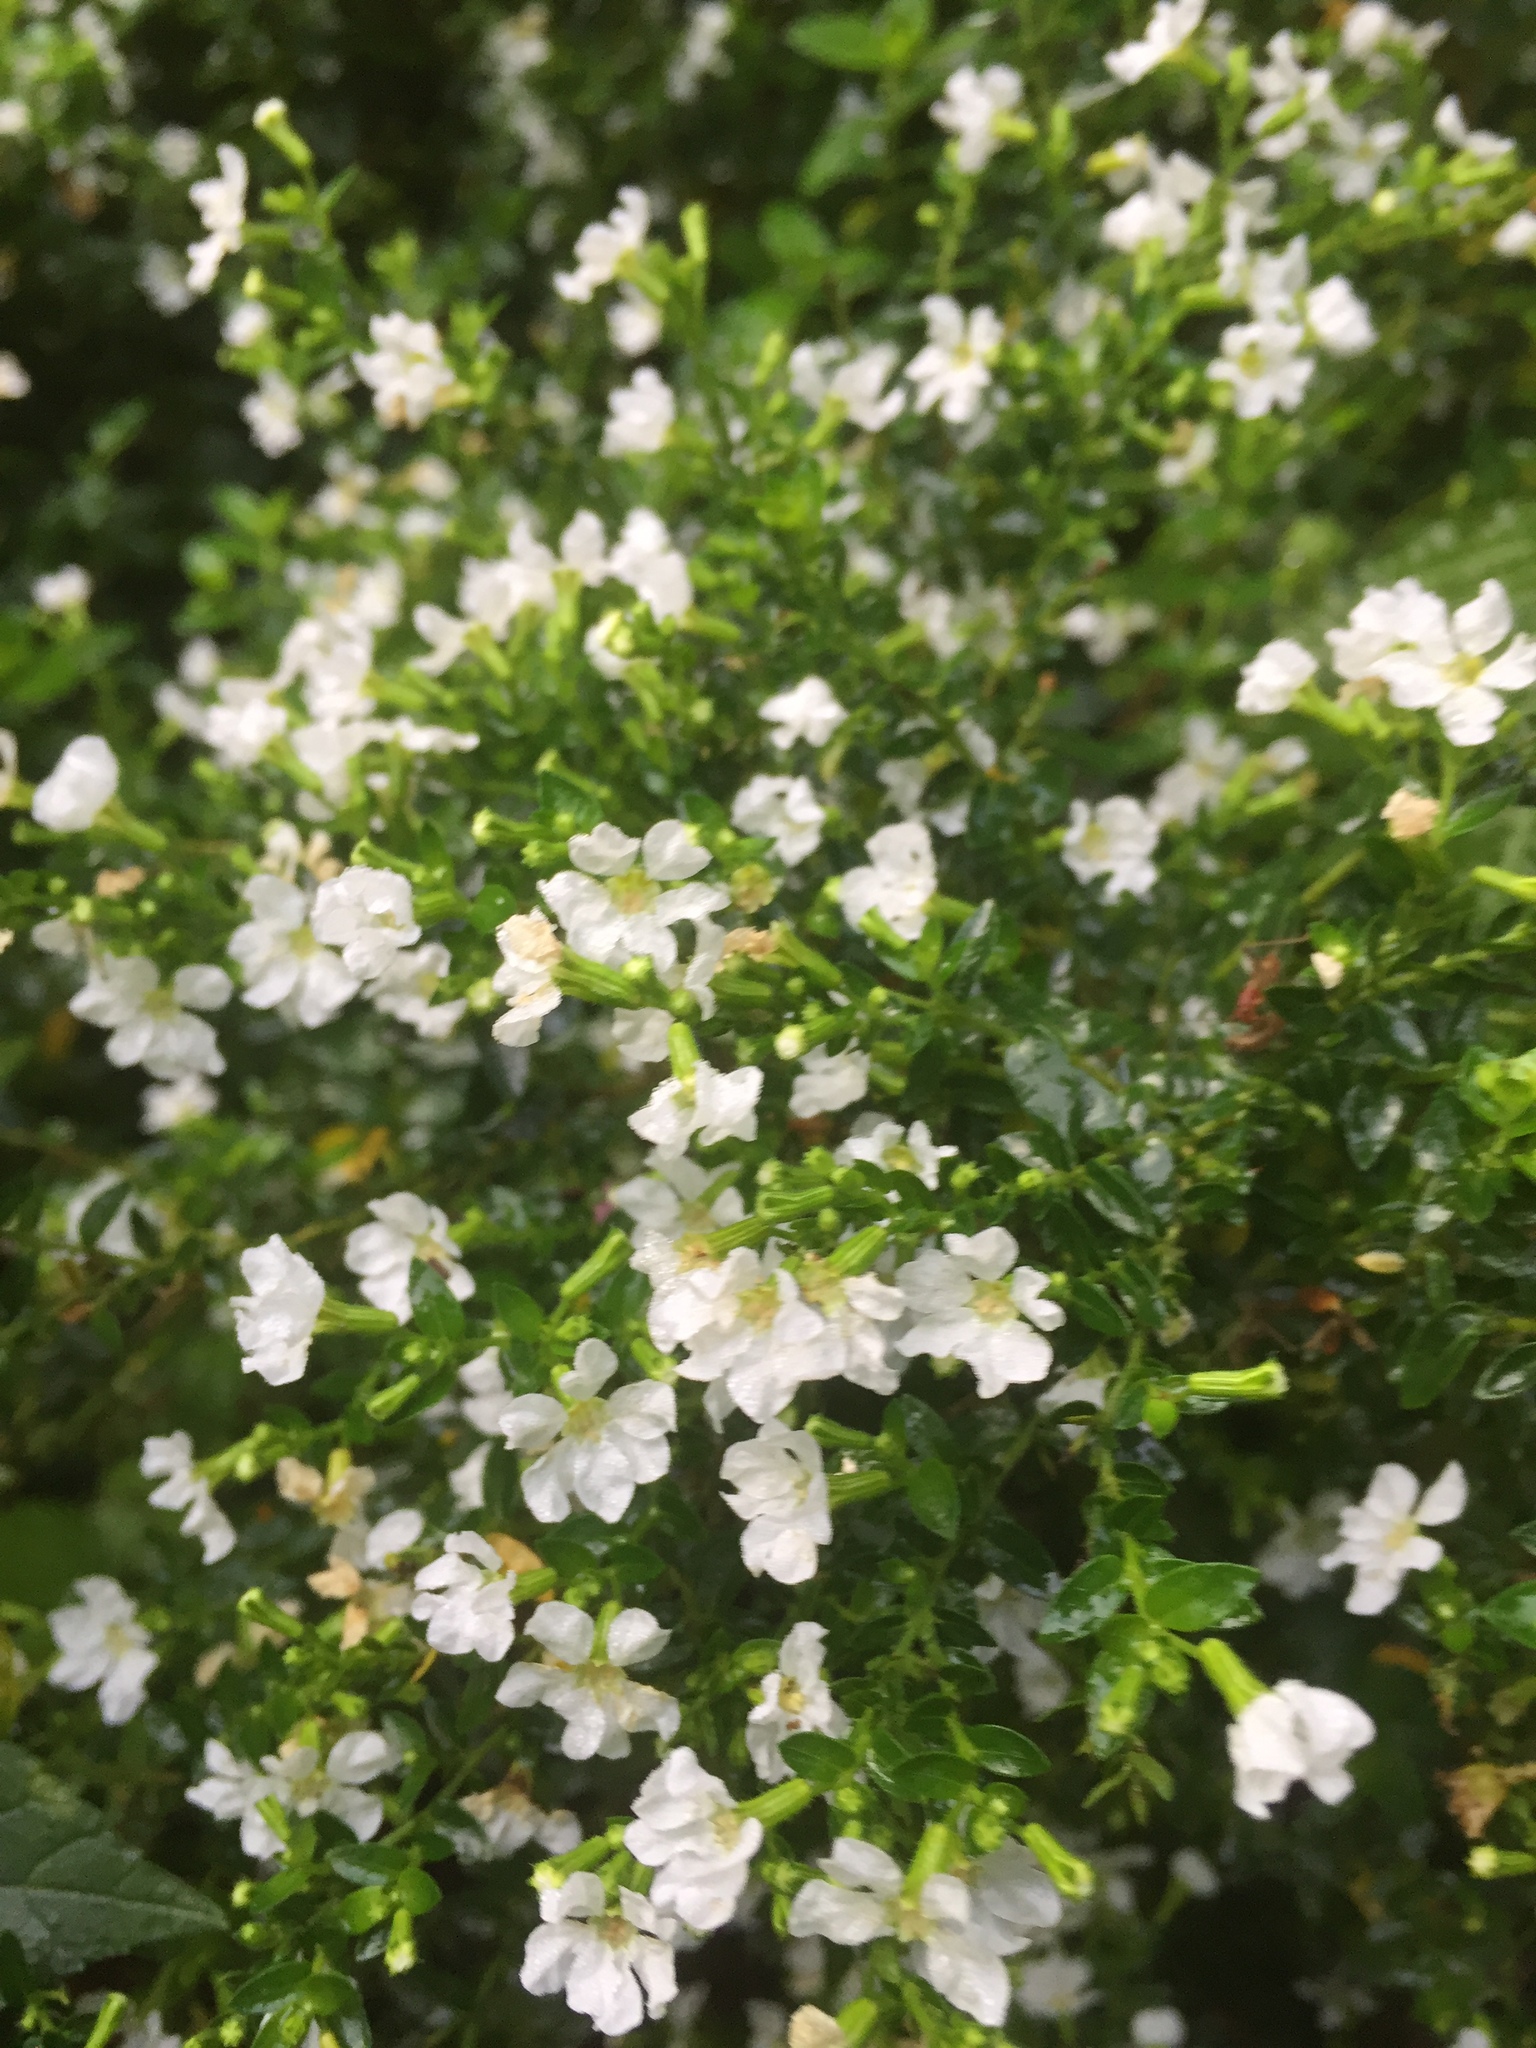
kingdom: Plantae
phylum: Tracheophyta
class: Magnoliopsida
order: Myrtales
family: Lythraceae
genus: Cuphea
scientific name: Cuphea hyssopifolia
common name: False heather
